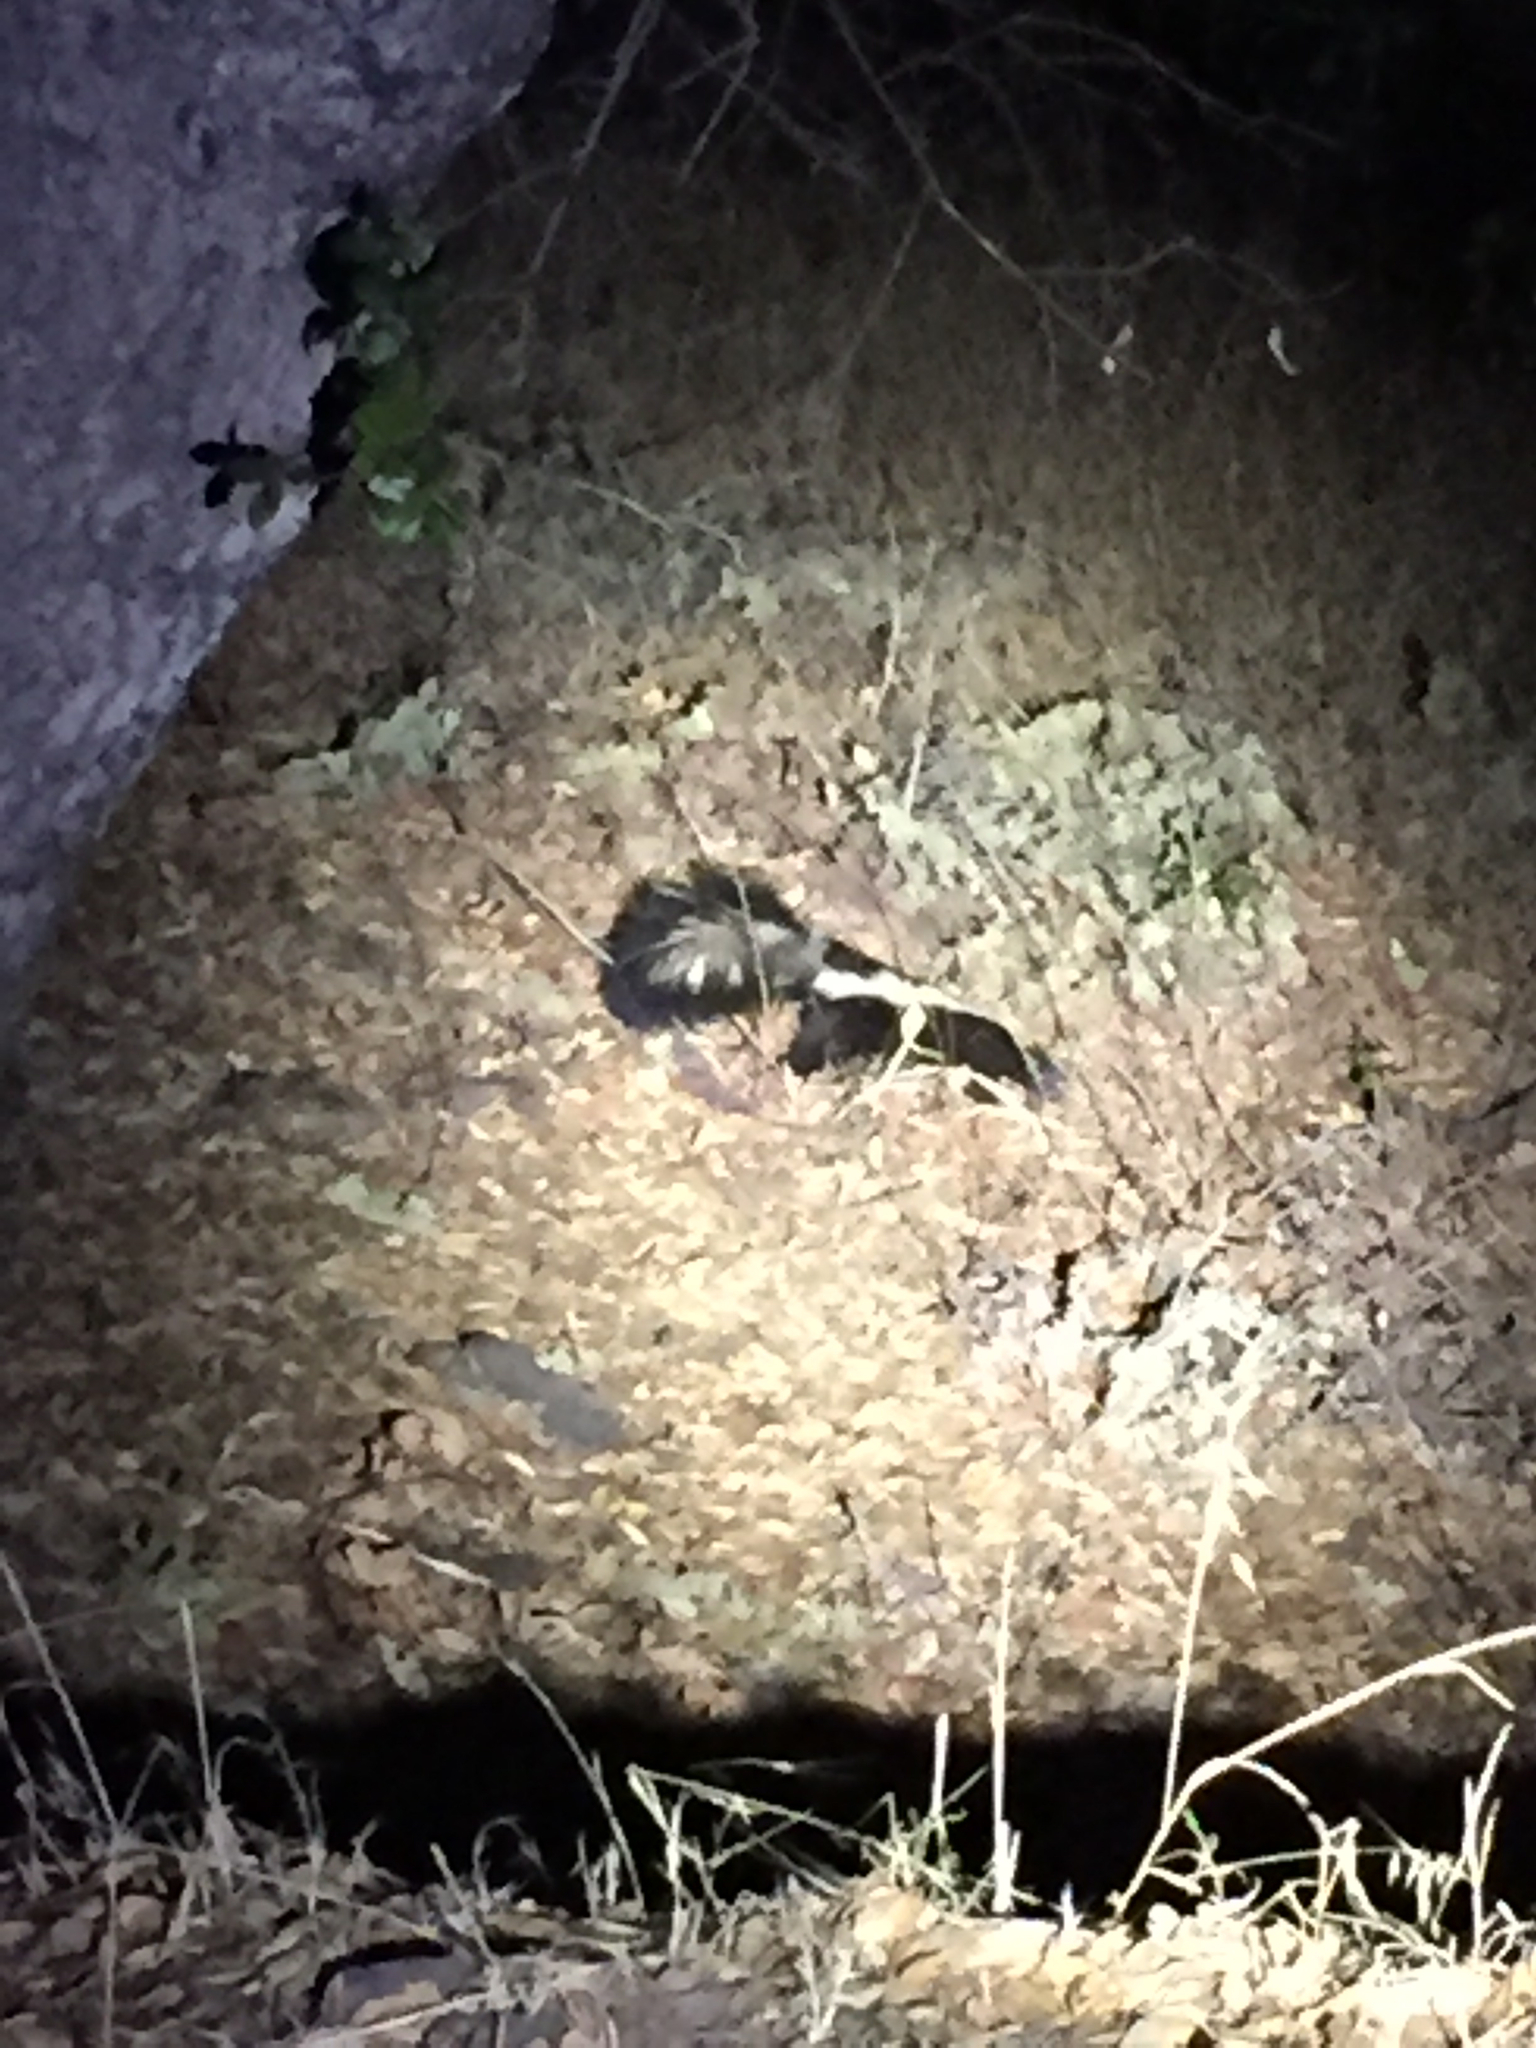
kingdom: Animalia
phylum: Chordata
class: Mammalia
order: Carnivora
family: Mephitidae
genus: Mephitis
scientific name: Mephitis mephitis
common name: Striped skunk
